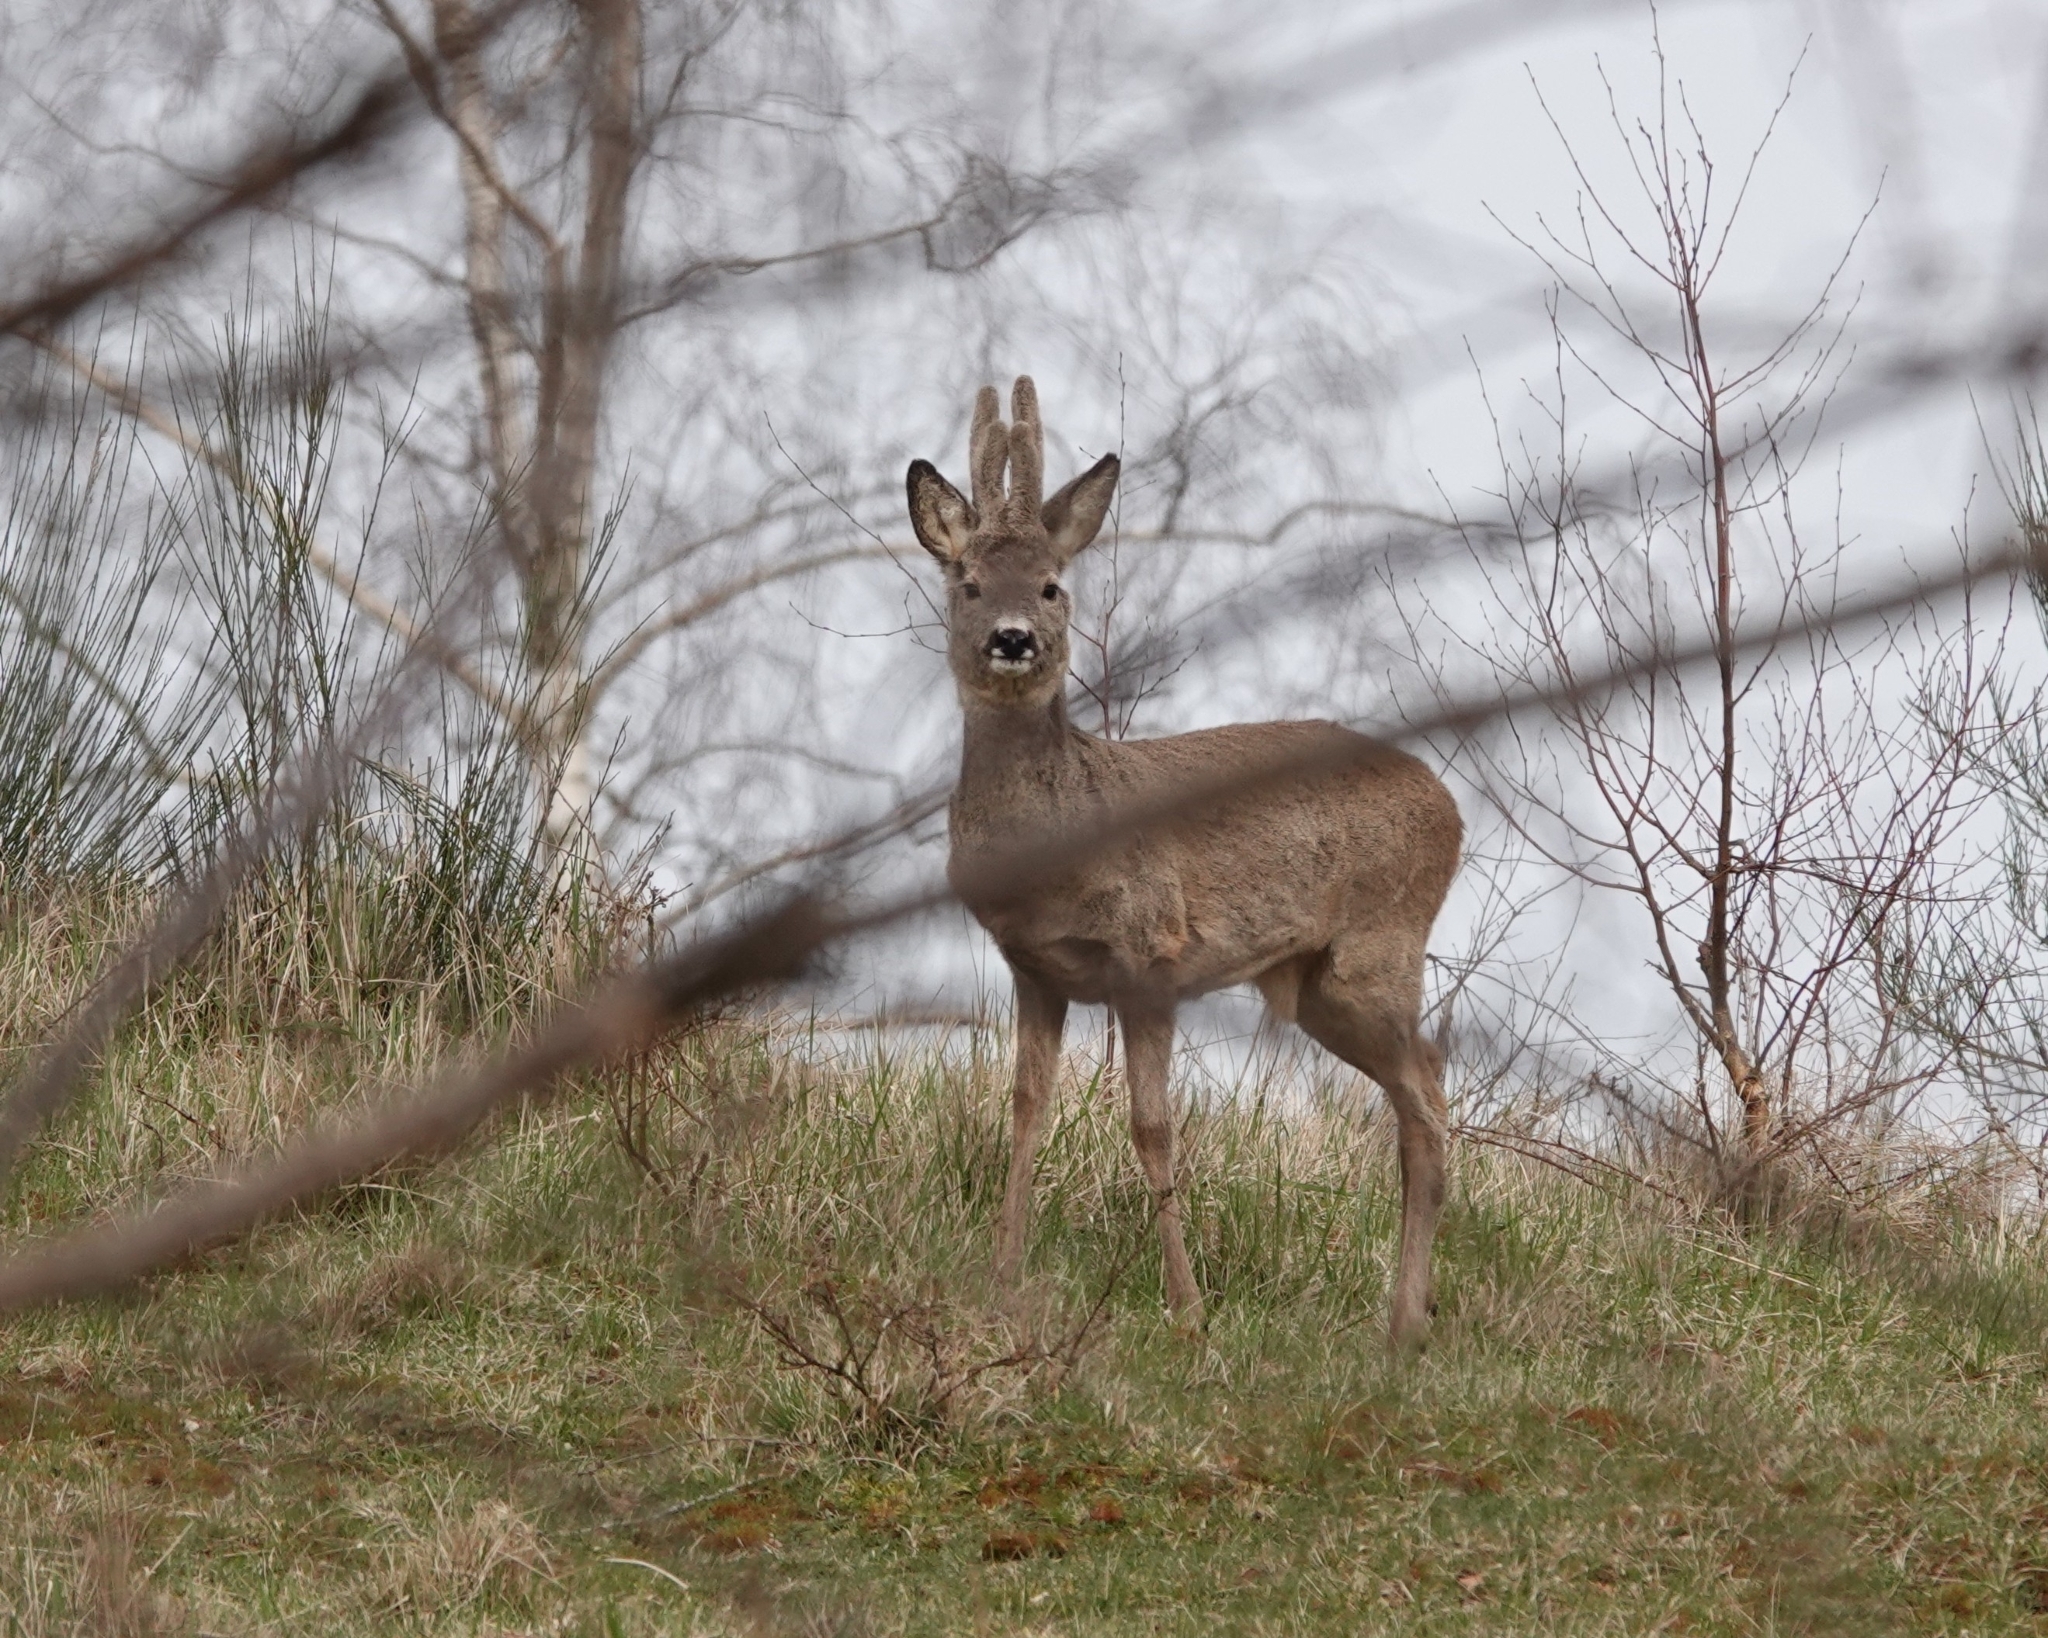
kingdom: Animalia
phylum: Chordata
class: Mammalia
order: Artiodactyla
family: Cervidae
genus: Capreolus
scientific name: Capreolus capreolus
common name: Western roe deer
